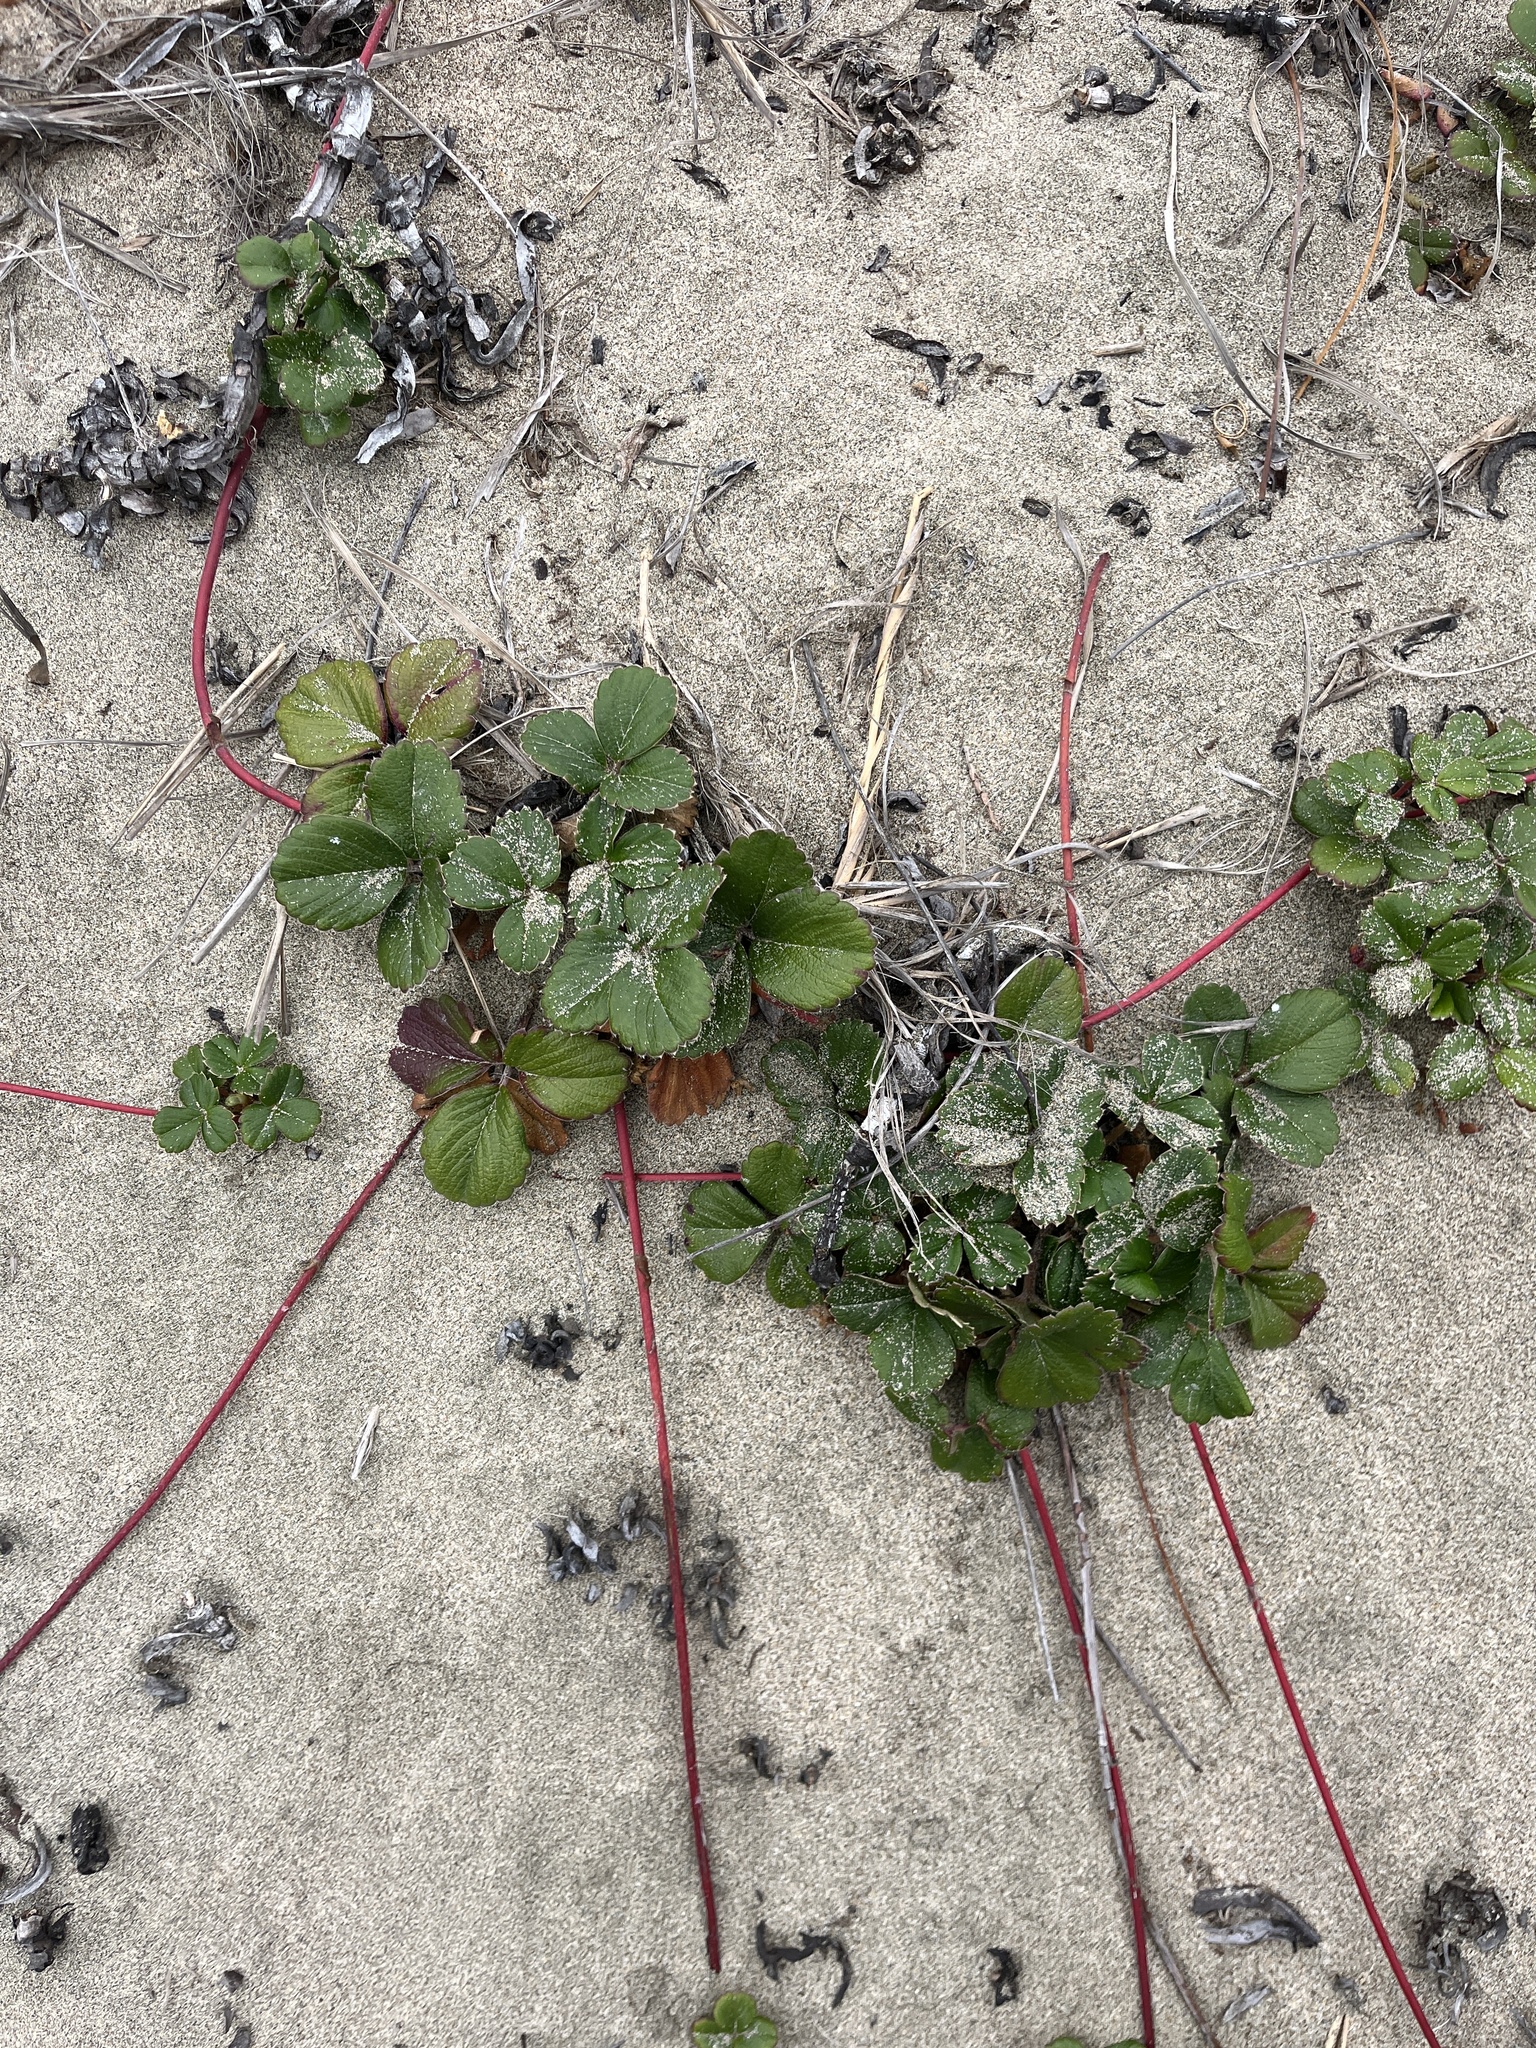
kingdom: Plantae
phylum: Tracheophyta
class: Magnoliopsida
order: Rosales
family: Rosaceae
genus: Fragaria
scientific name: Fragaria chiloensis
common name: Beach strawberry
